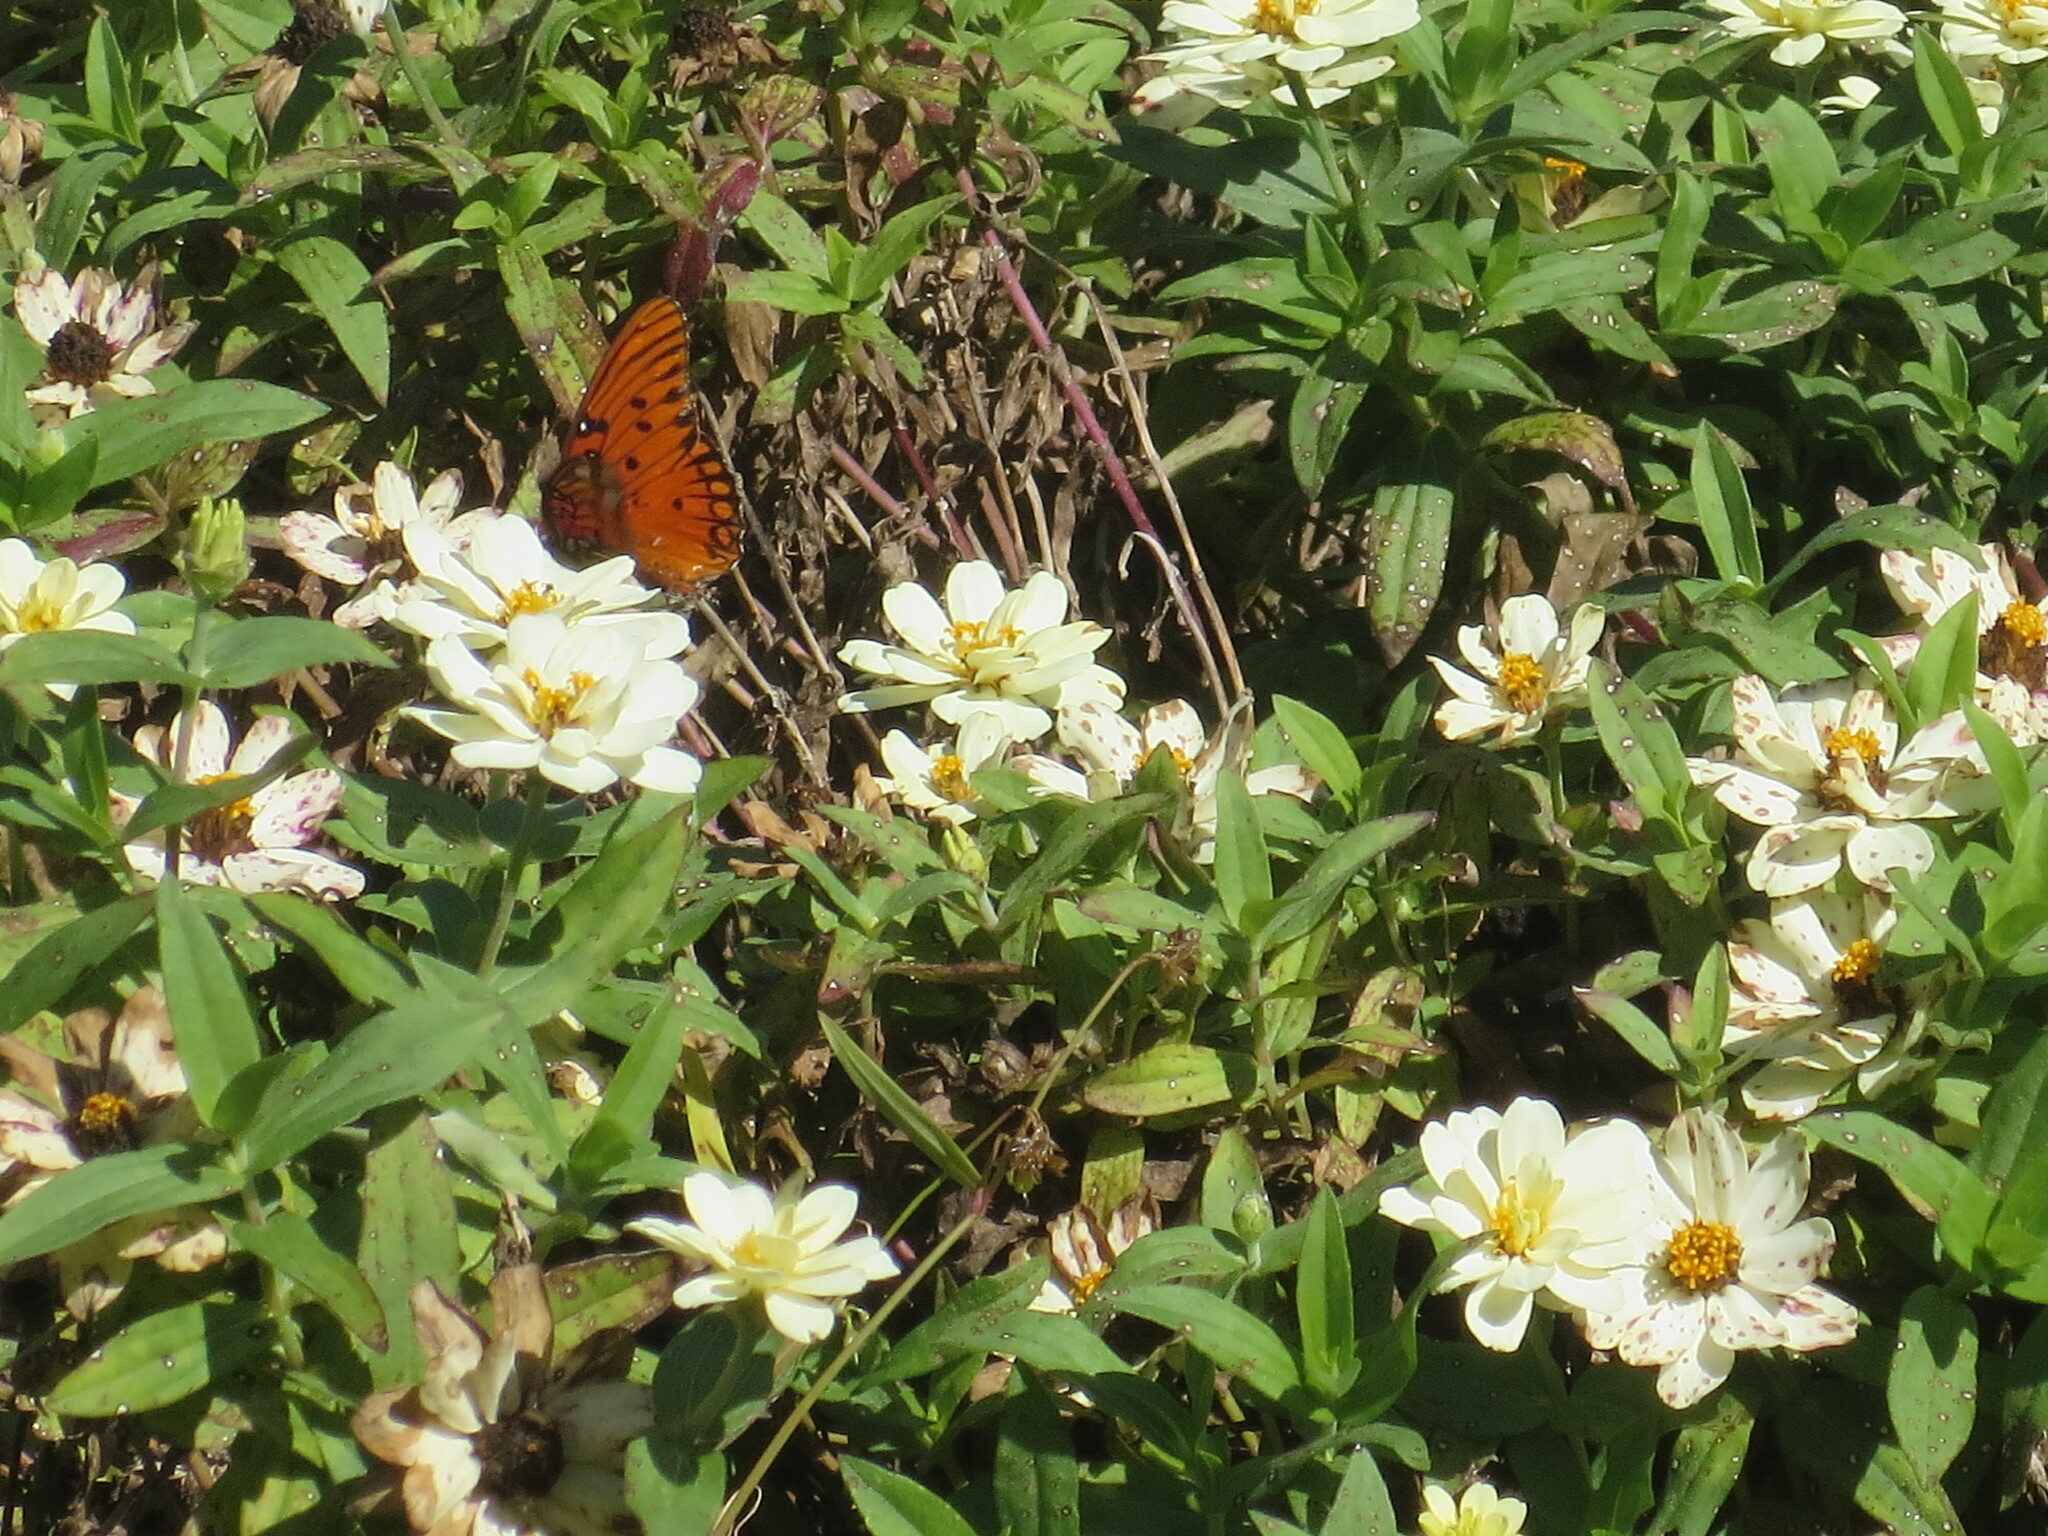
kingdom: Animalia
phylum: Arthropoda
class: Insecta
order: Lepidoptera
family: Nymphalidae
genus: Dione
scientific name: Dione vanillae
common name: Gulf fritillary
